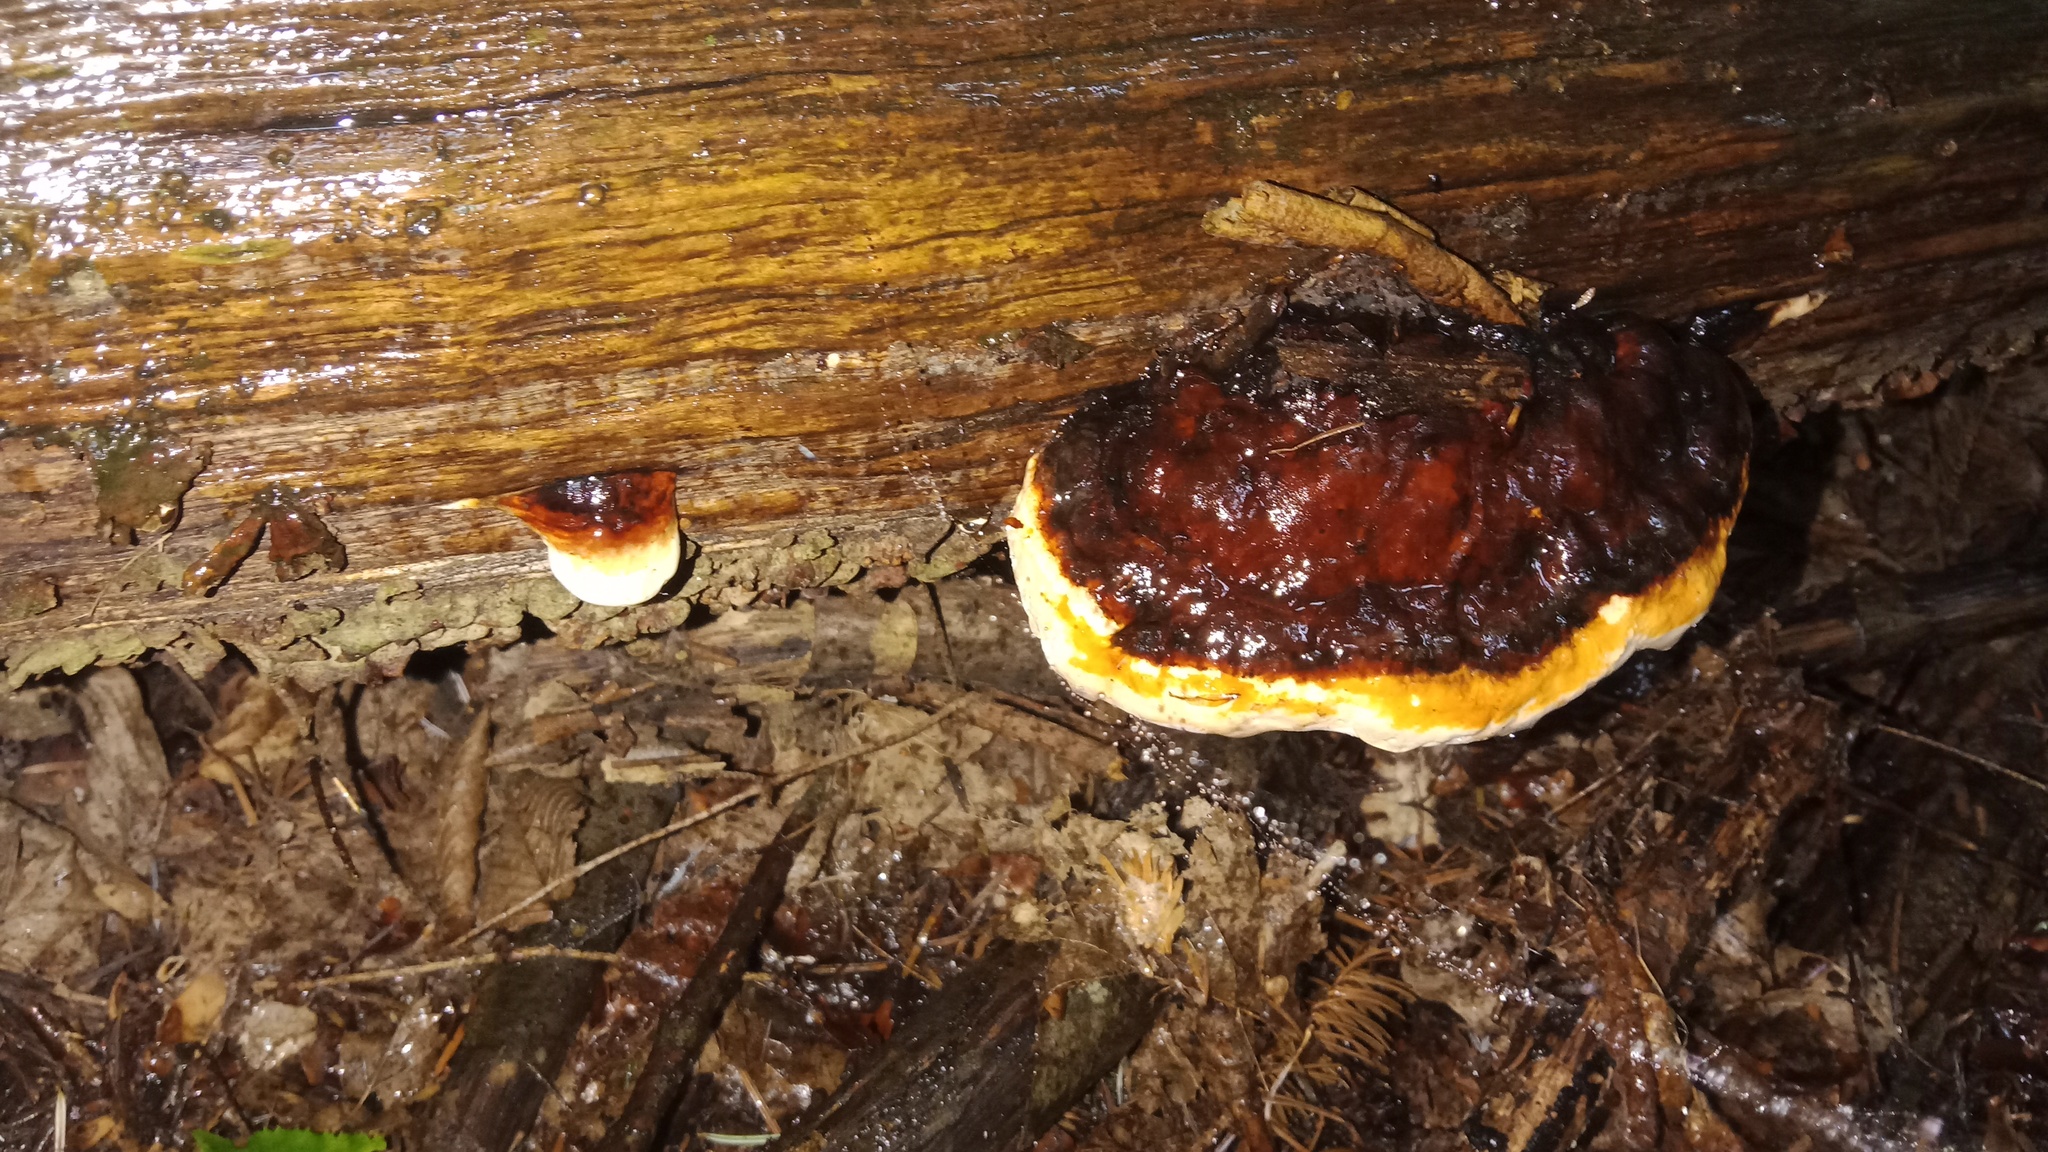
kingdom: Fungi
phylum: Basidiomycota
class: Agaricomycetes
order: Polyporales
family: Fomitopsidaceae
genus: Fomitopsis
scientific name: Fomitopsis pinicola
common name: Red-belted bracket
